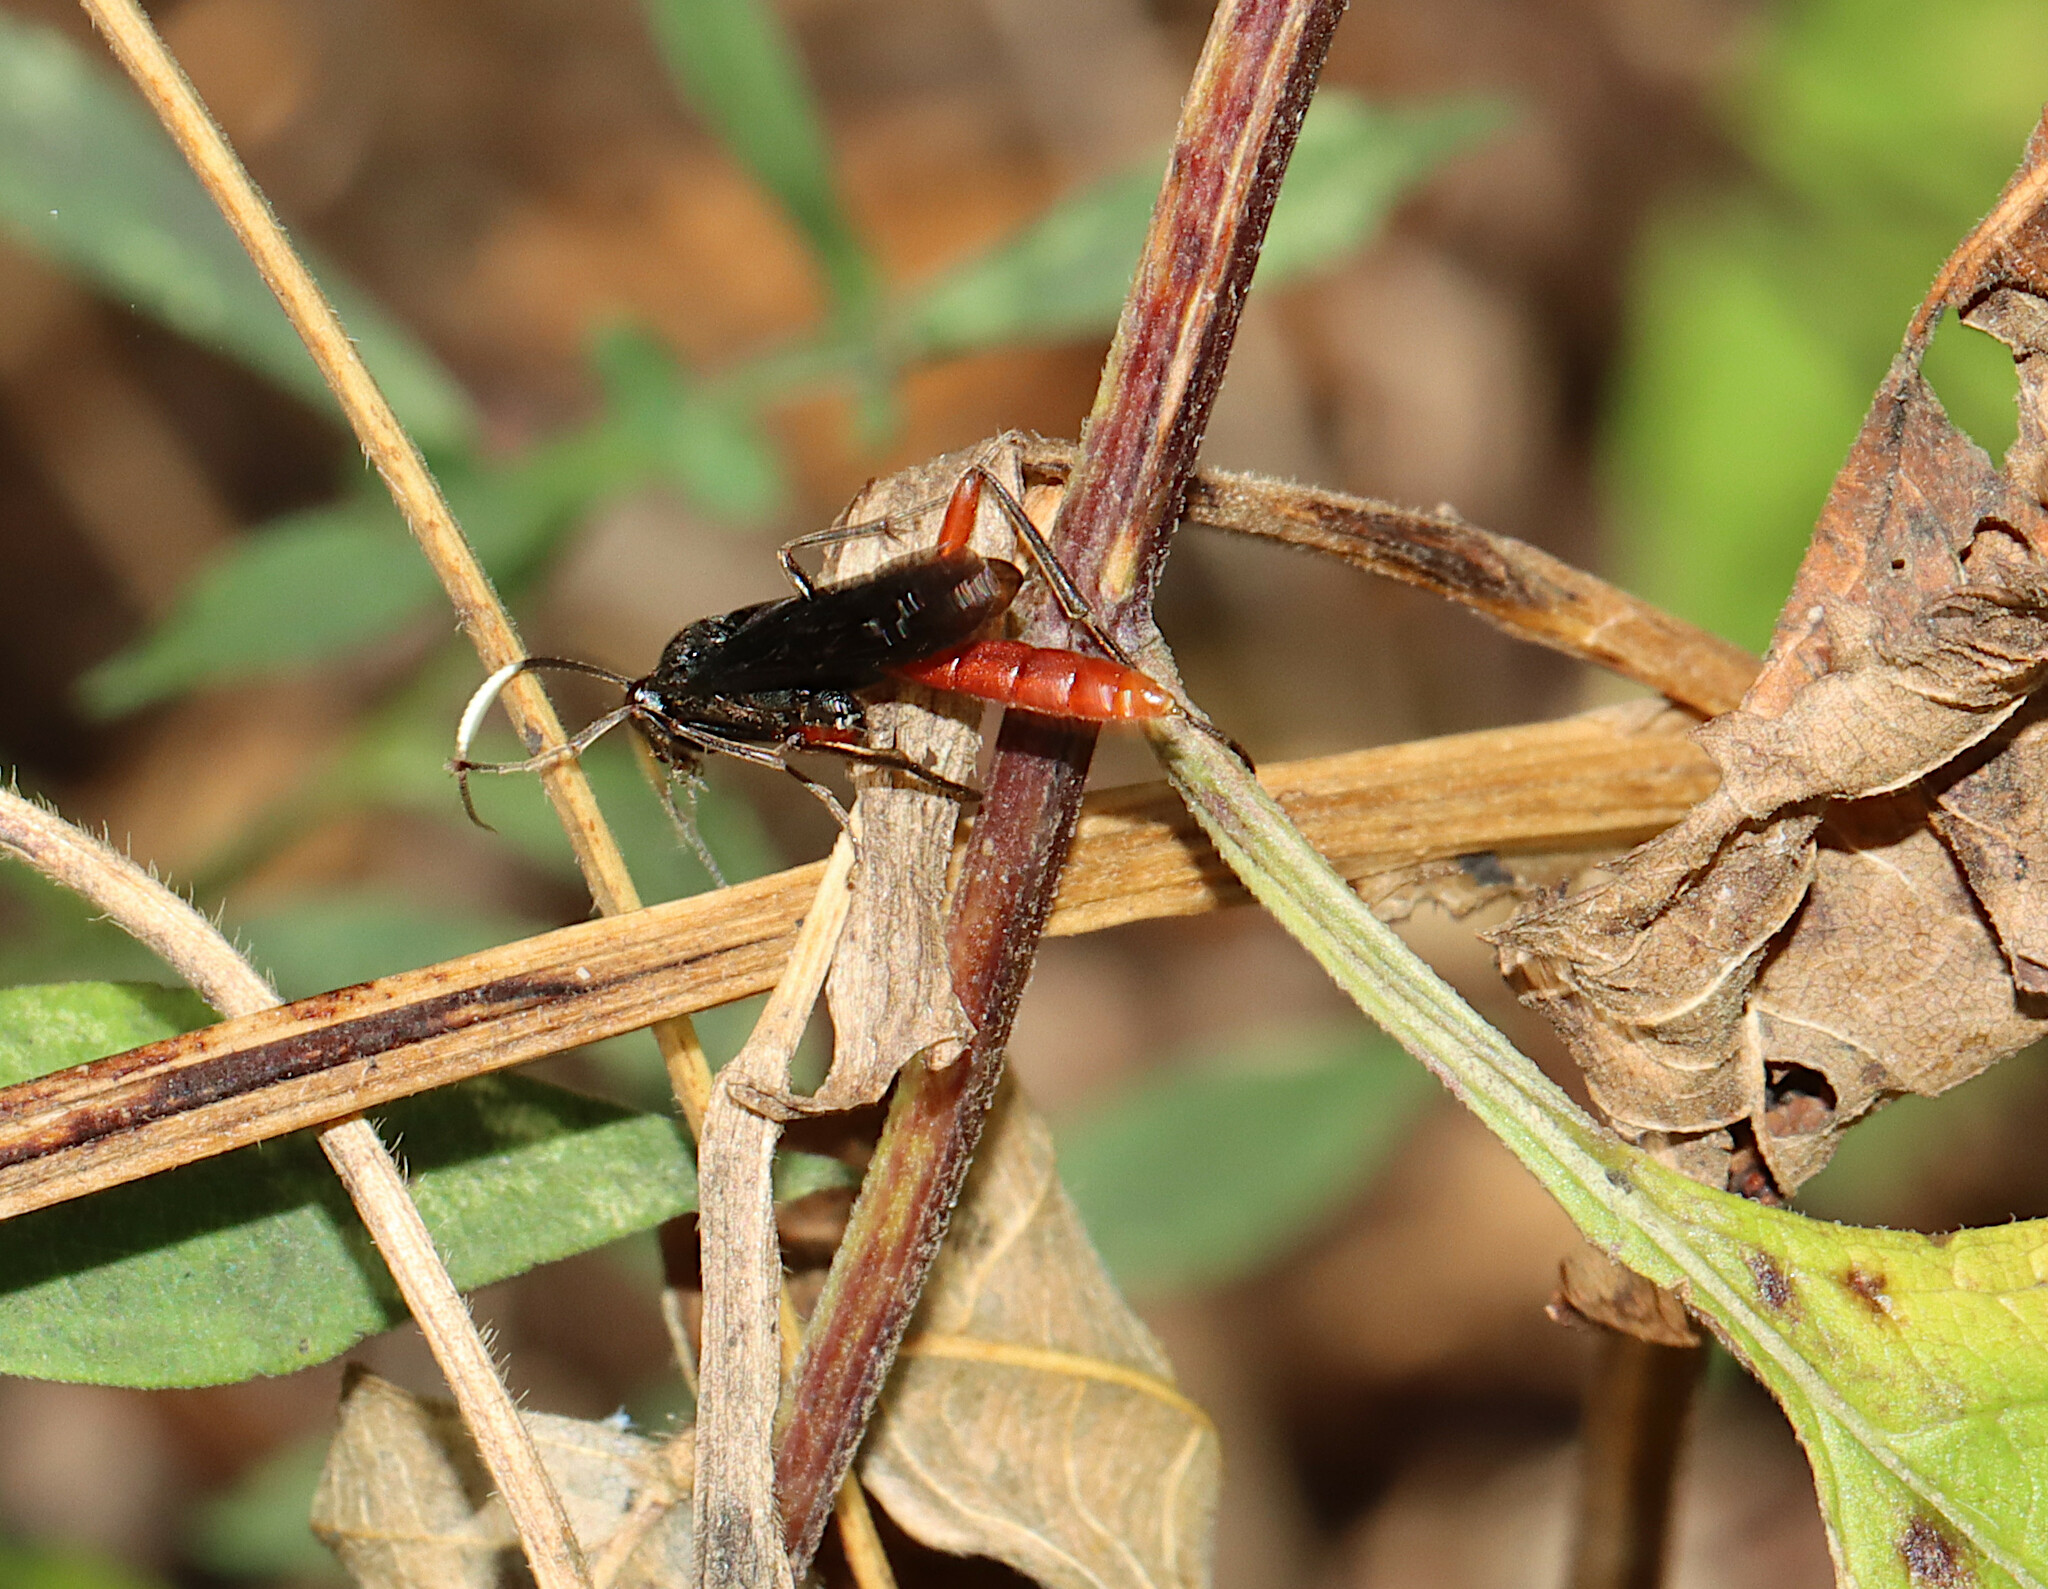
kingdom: Animalia
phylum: Arthropoda
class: Insecta
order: Hymenoptera
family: Ichneumonidae
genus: Limonethe
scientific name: Limonethe maurator
